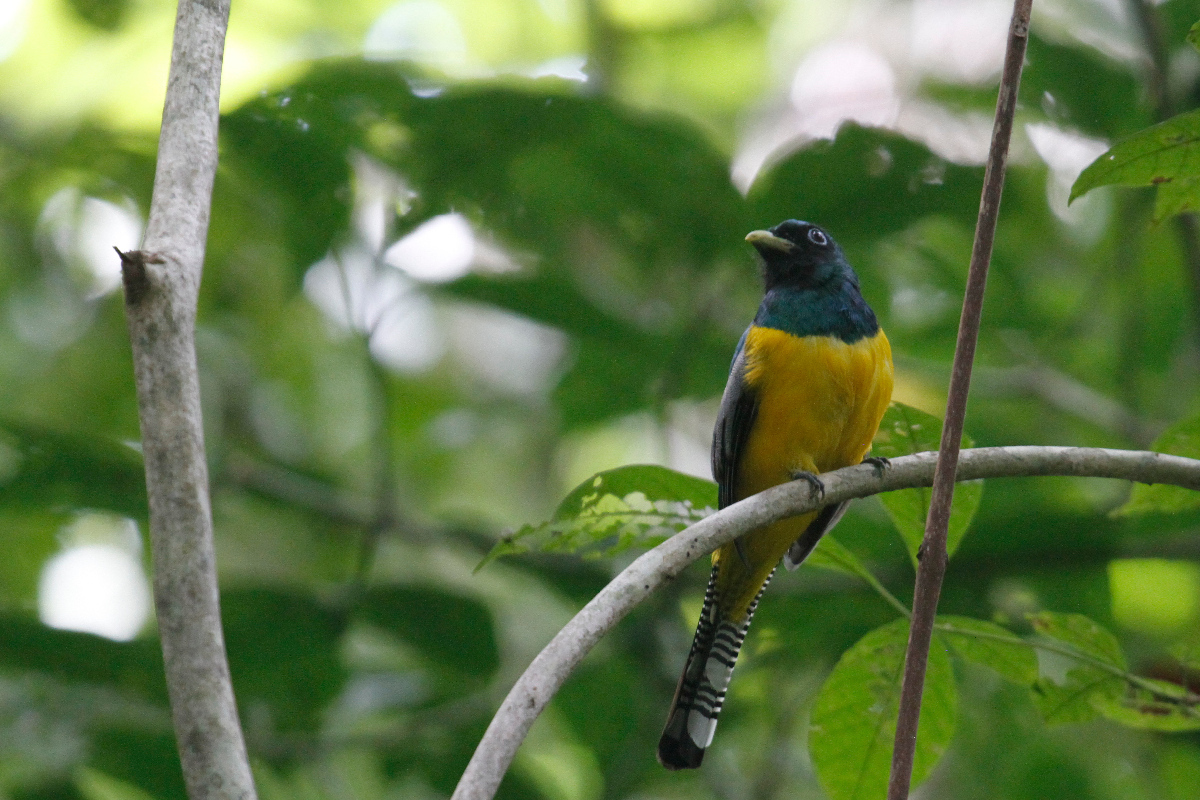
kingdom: Animalia
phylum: Chordata
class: Aves
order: Trogoniformes
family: Trogonidae
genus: Trogon
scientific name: Trogon rufus
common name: Black-throated trogon
